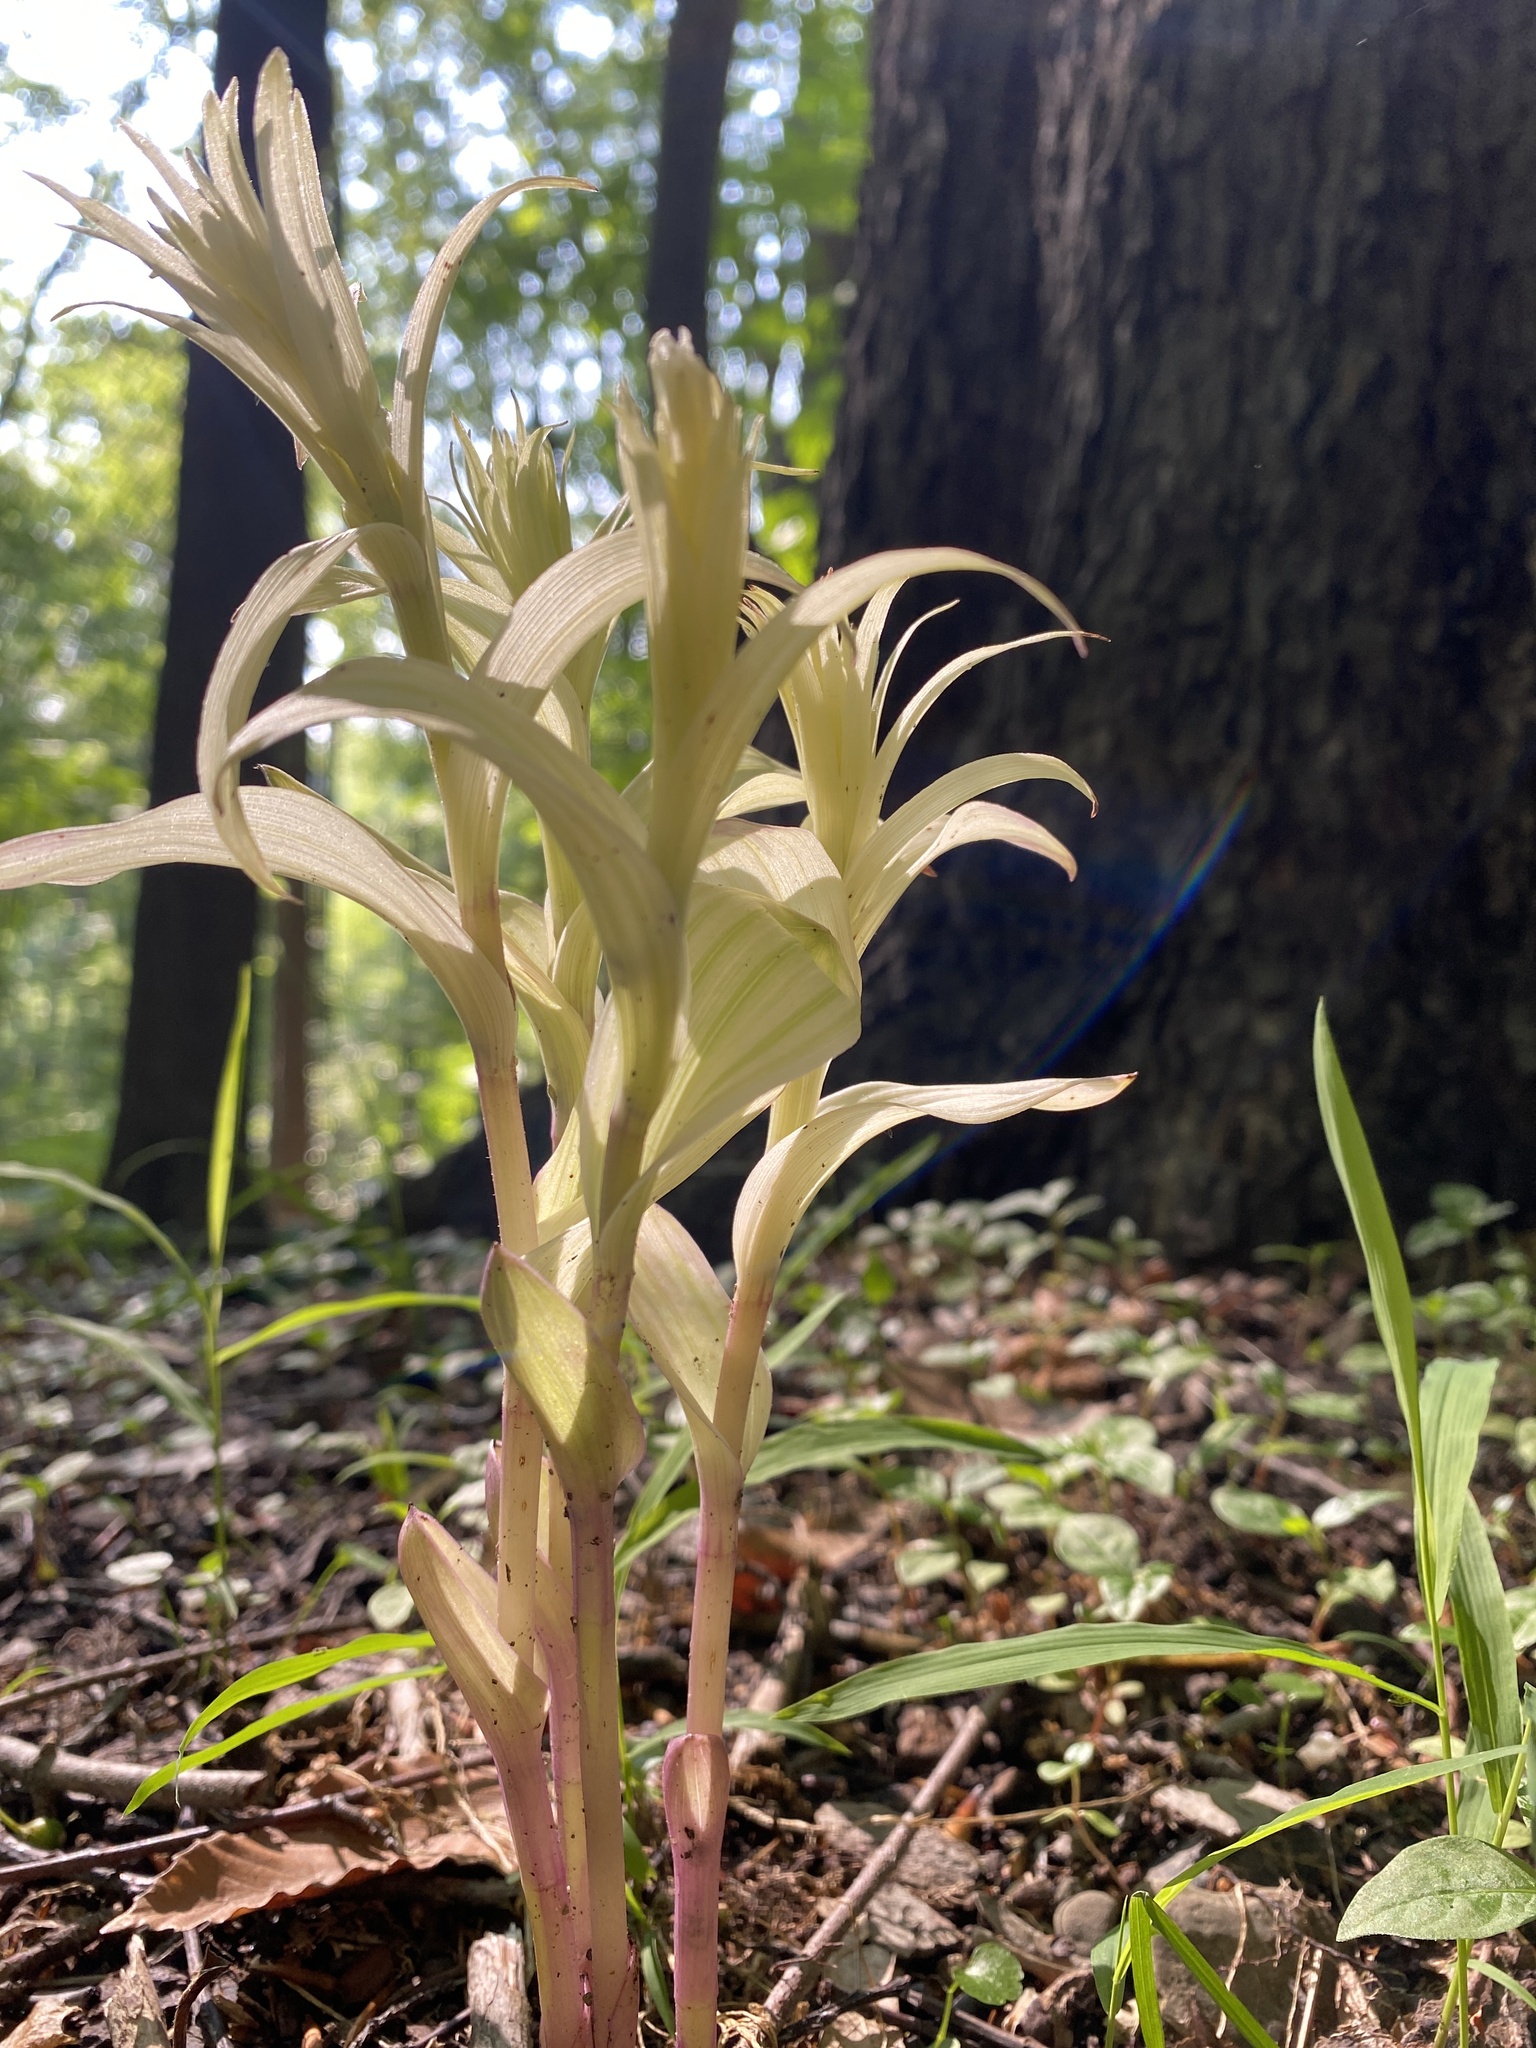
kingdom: Plantae
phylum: Tracheophyta
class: Liliopsida
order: Asparagales
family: Orchidaceae
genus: Epipactis
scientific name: Epipactis helleborine
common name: Broad-leaved helleborine
